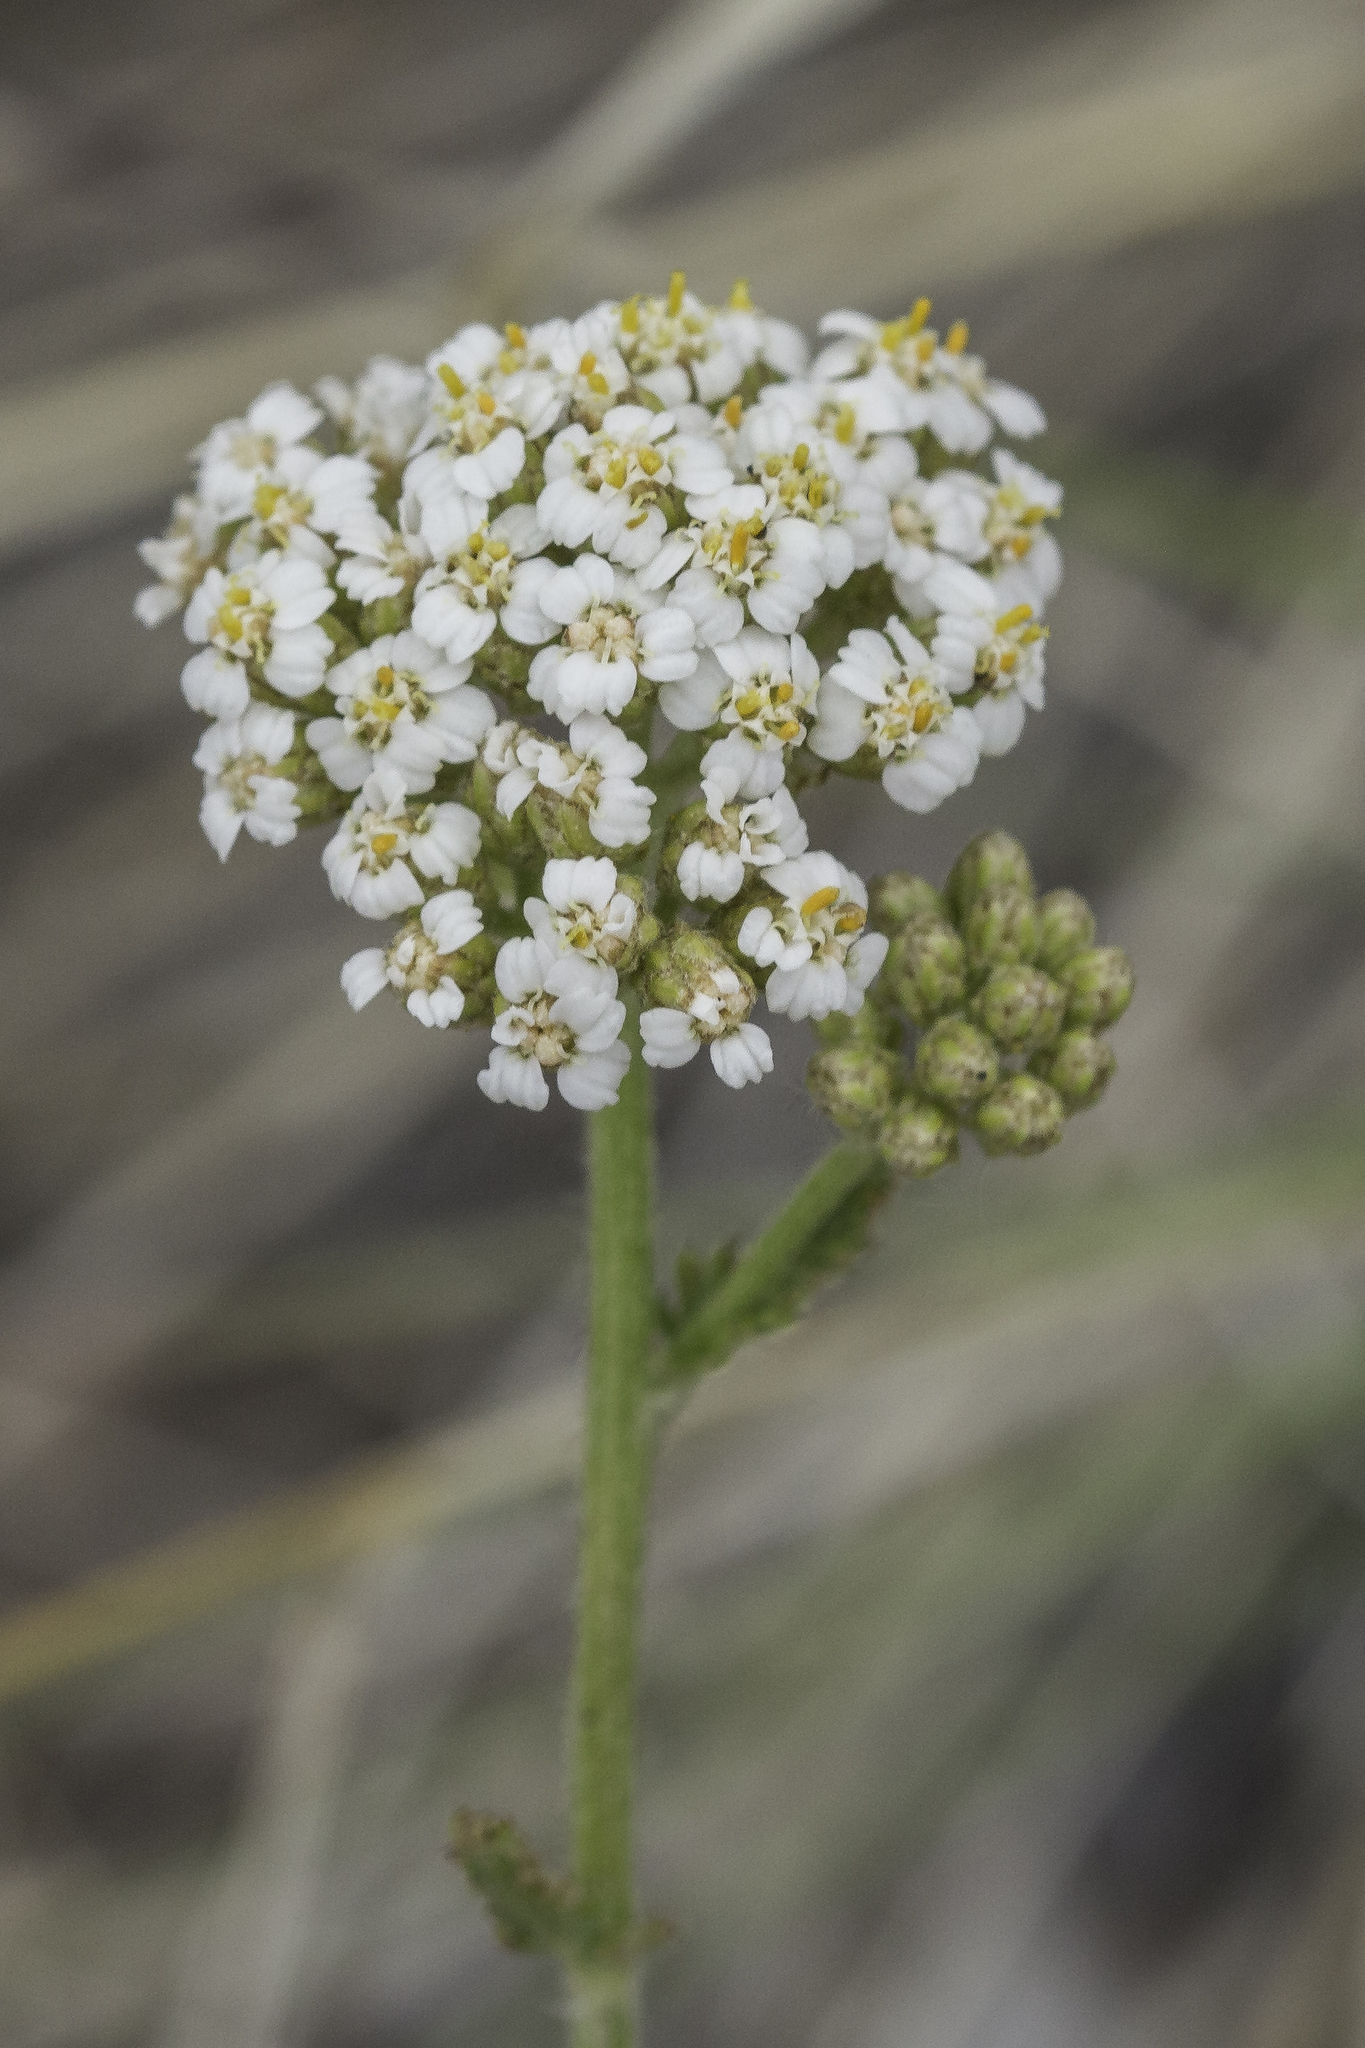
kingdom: Plantae
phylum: Tracheophyta
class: Magnoliopsida
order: Asterales
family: Asteraceae
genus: Achillea
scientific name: Achillea millefolium
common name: Yarrow
